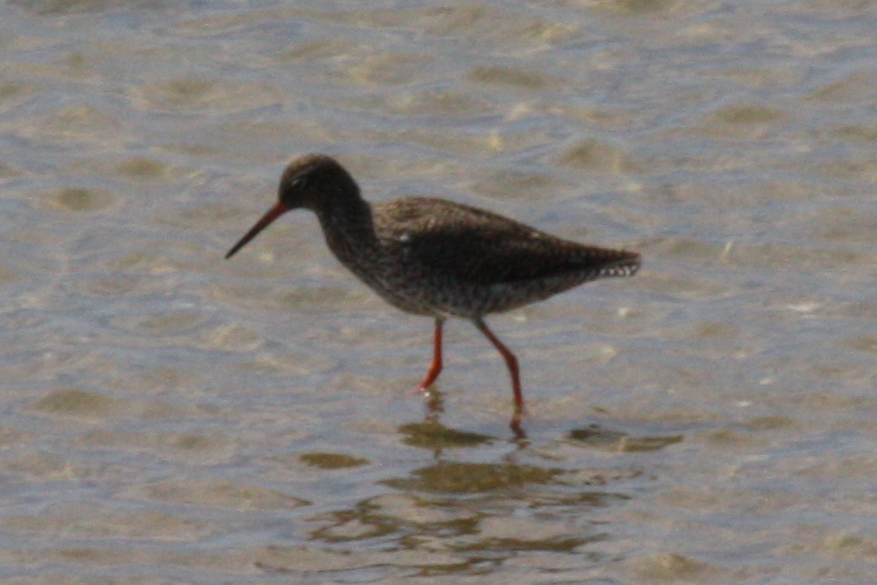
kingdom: Animalia
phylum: Chordata
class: Aves
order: Charadriiformes
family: Scolopacidae
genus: Tringa
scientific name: Tringa totanus
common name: Common redshank
